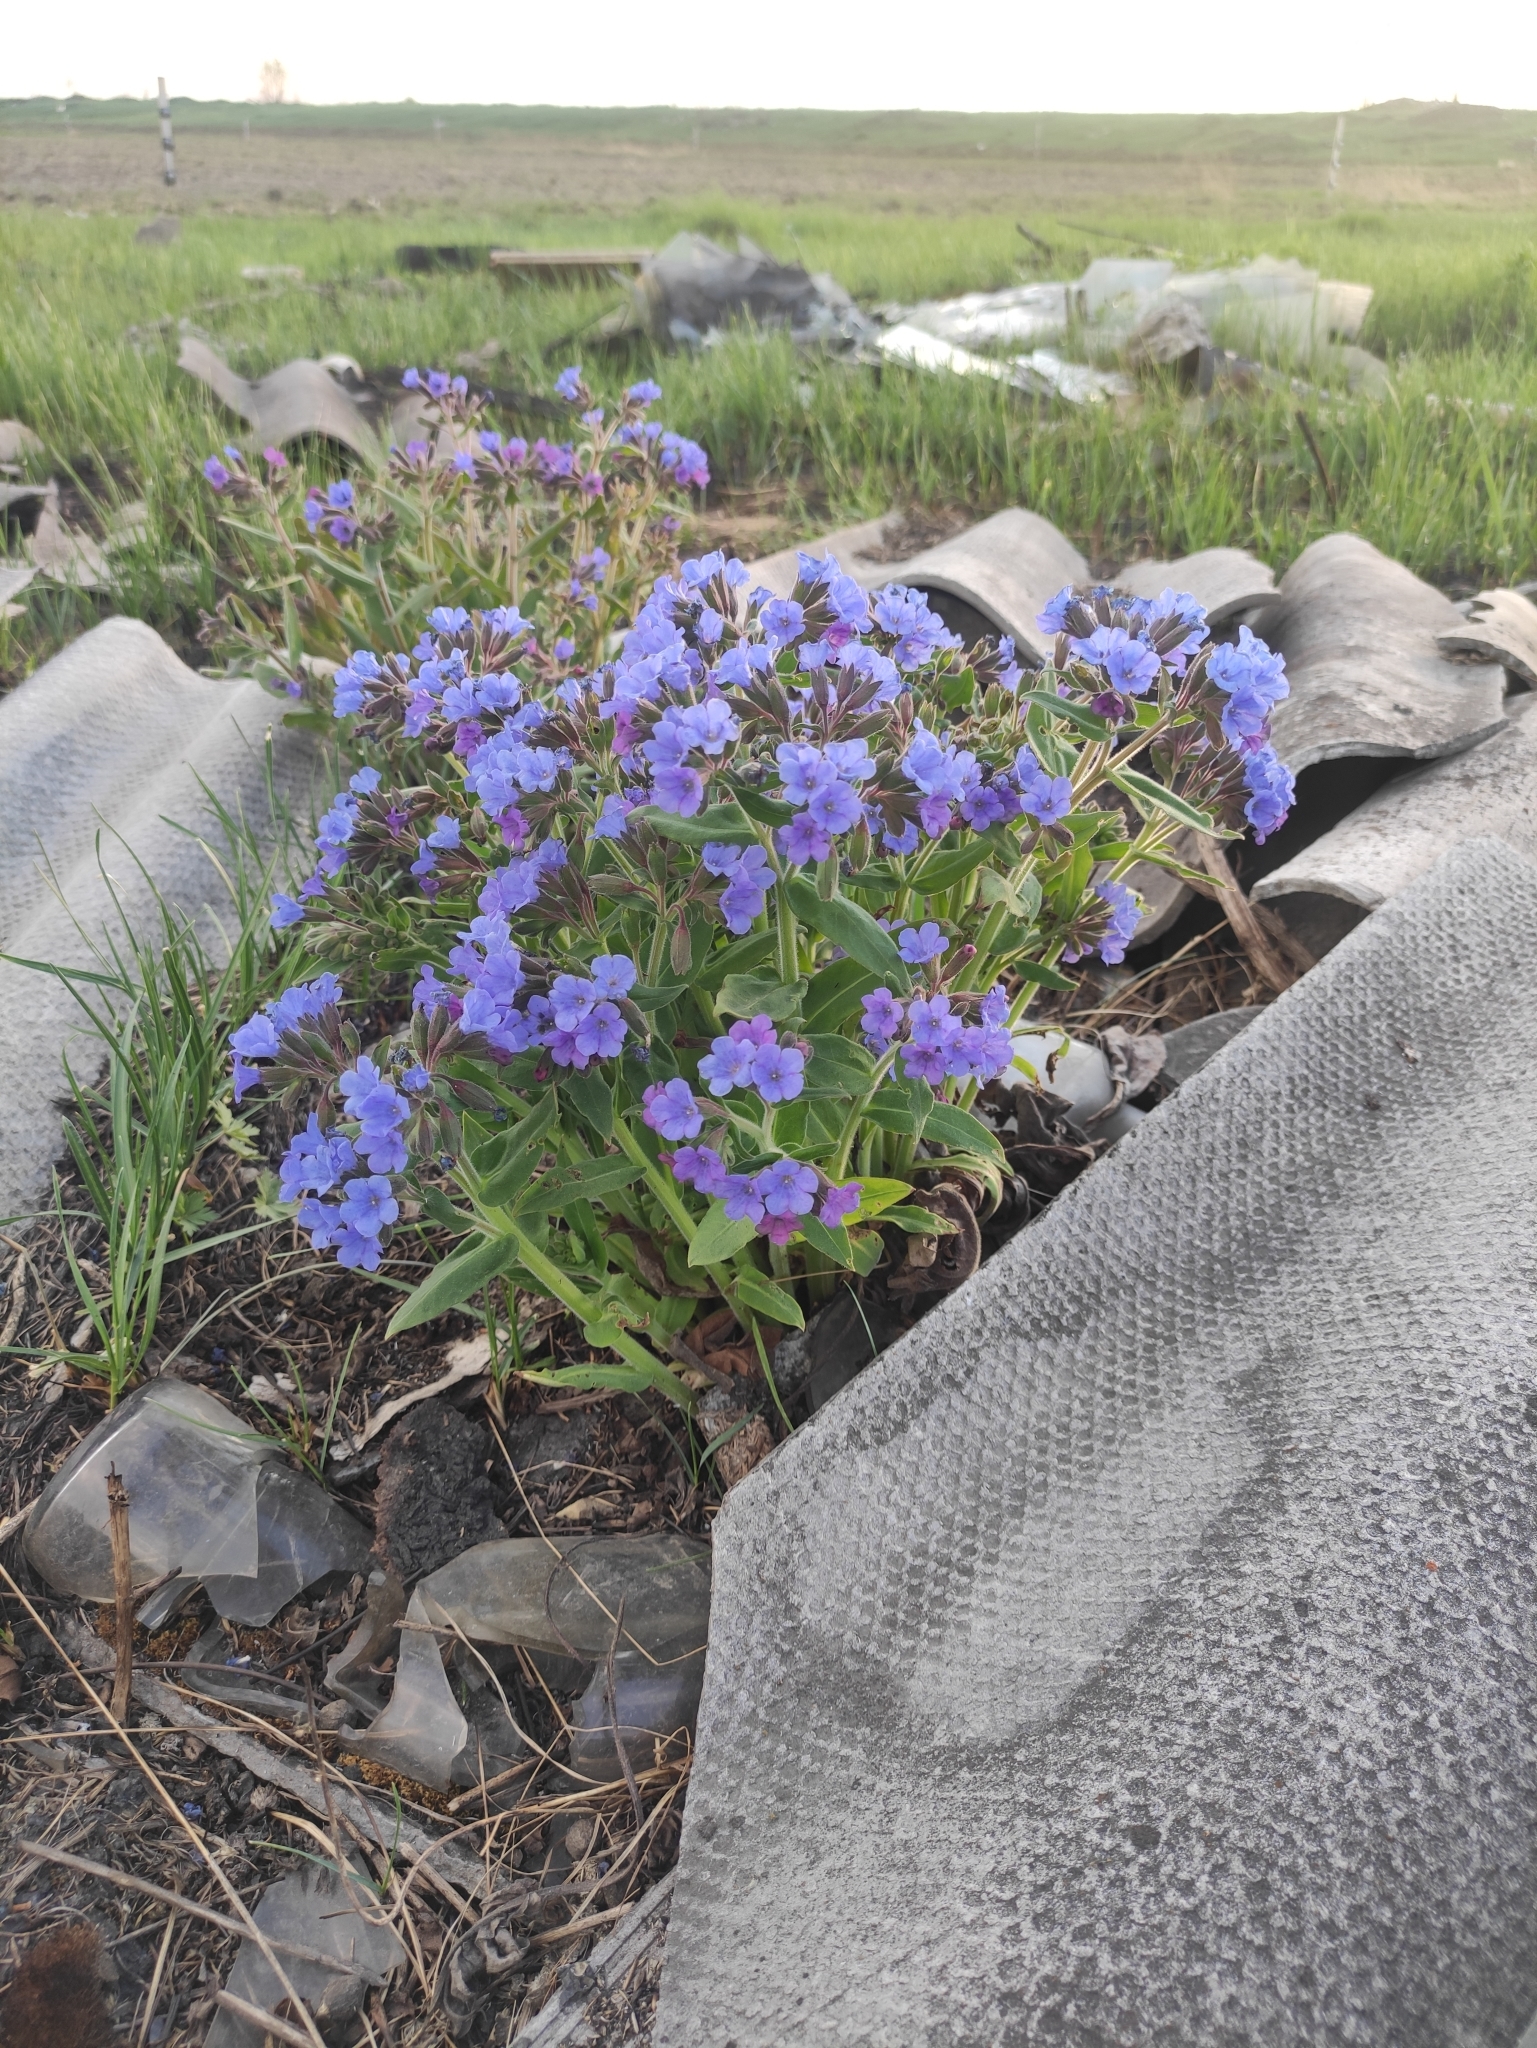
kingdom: Plantae
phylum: Tracheophyta
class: Magnoliopsida
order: Boraginales
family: Boraginaceae
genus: Pulmonaria
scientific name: Pulmonaria mollis
